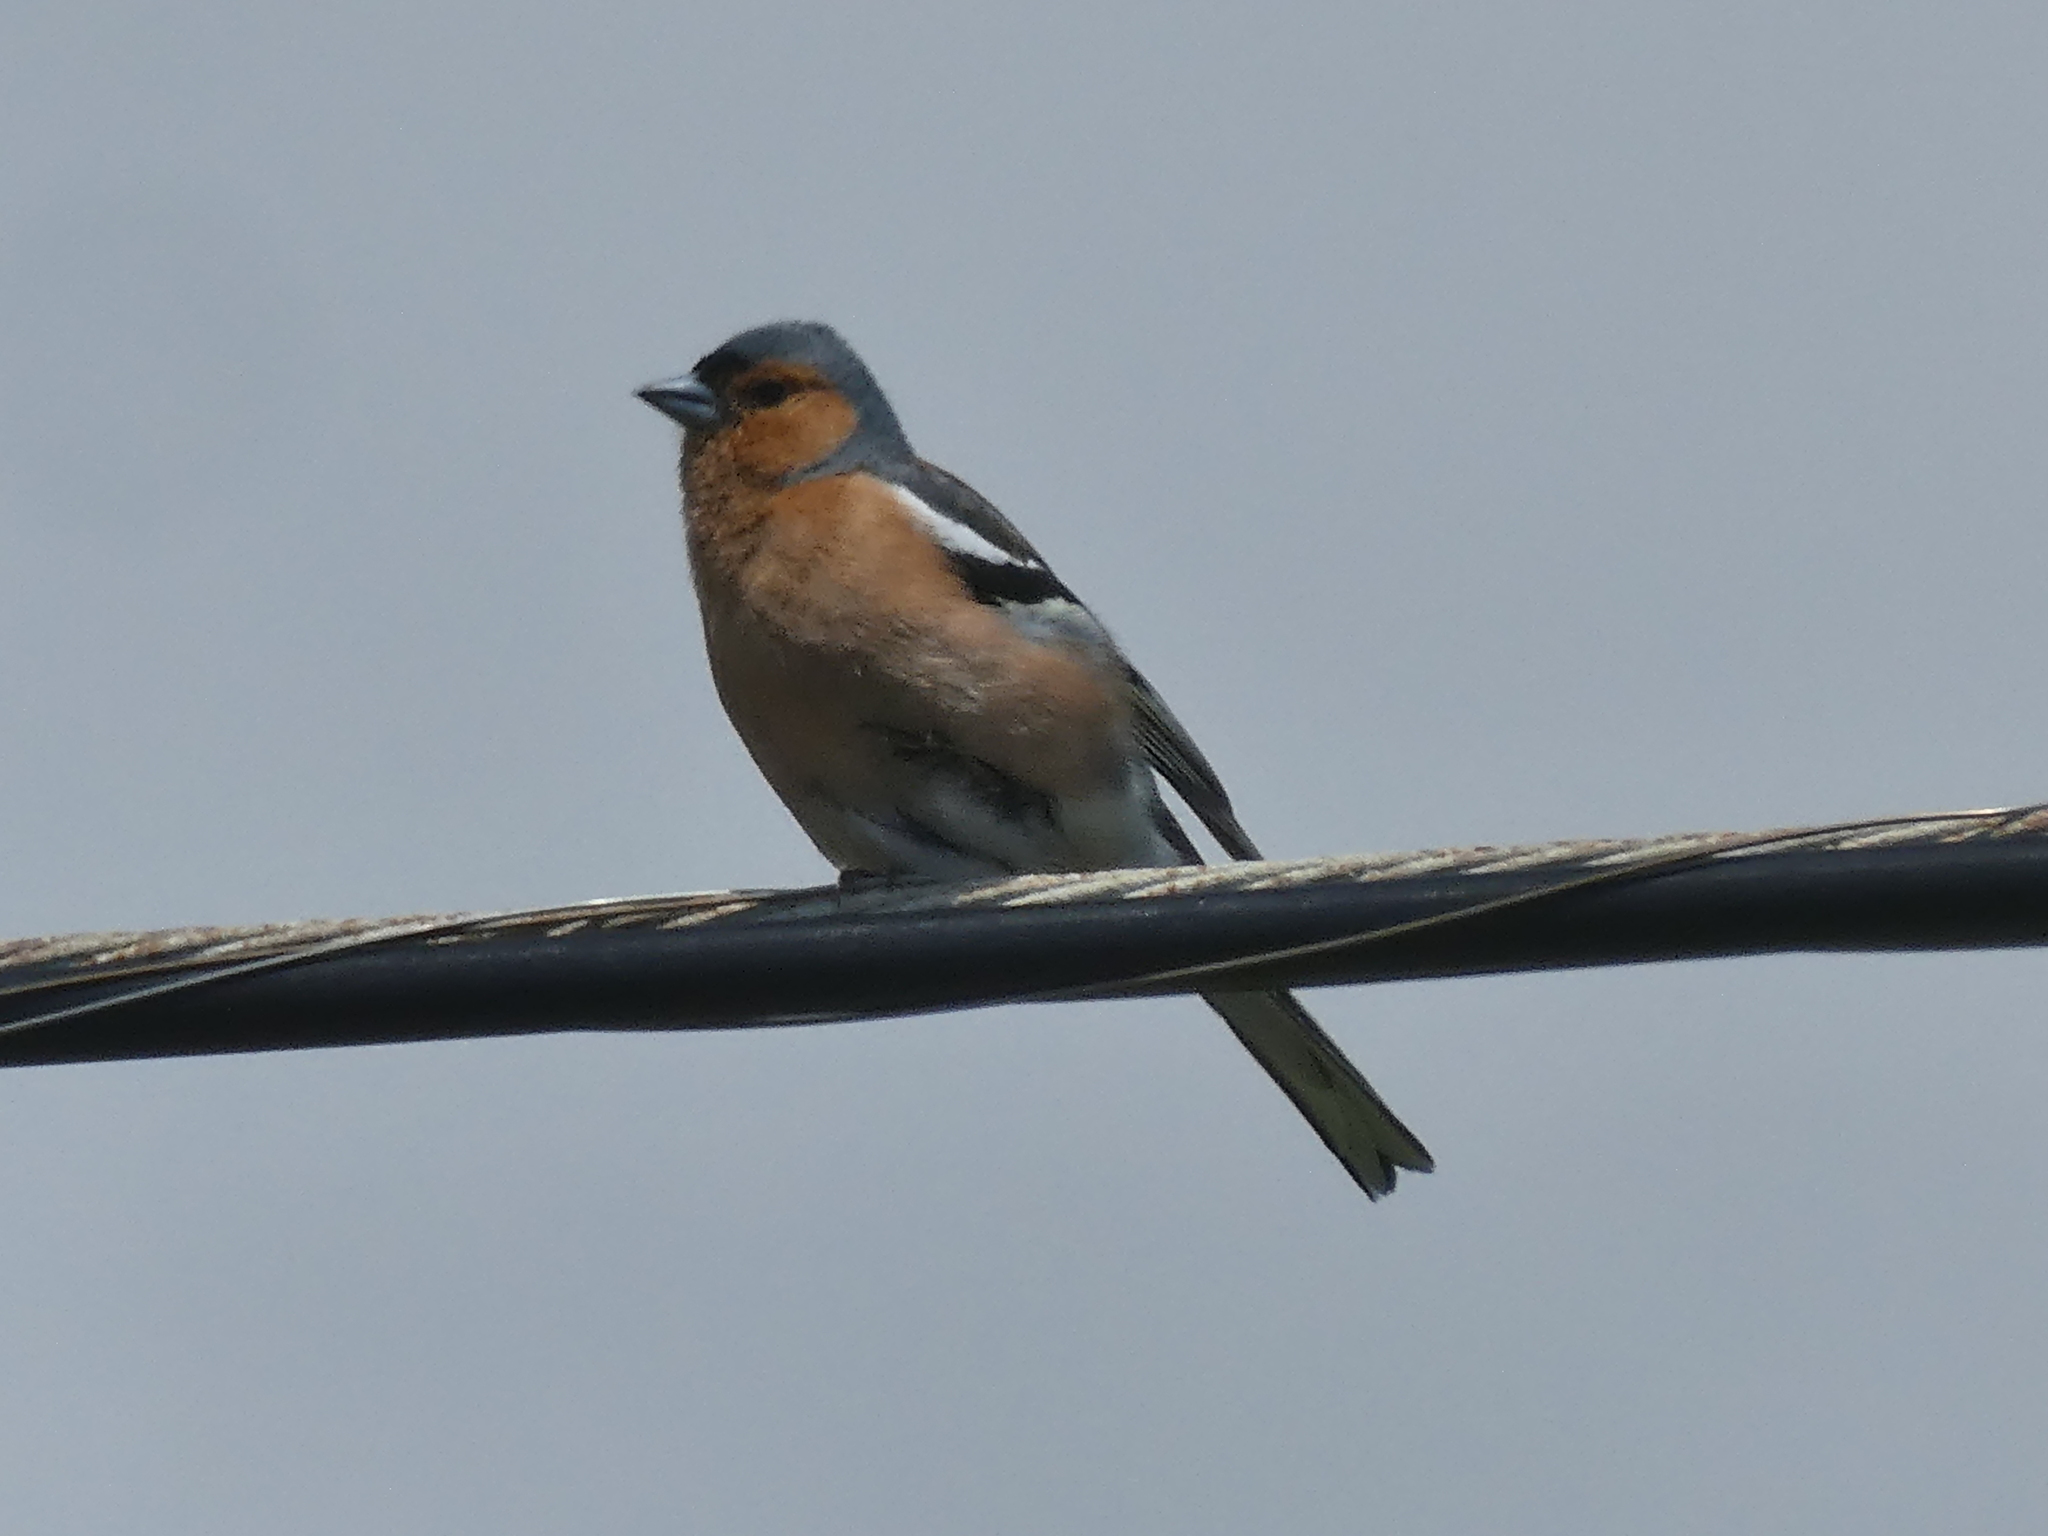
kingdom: Animalia
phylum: Chordata
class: Aves
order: Passeriformes
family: Fringillidae
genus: Fringilla
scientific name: Fringilla coelebs
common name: Common chaffinch
